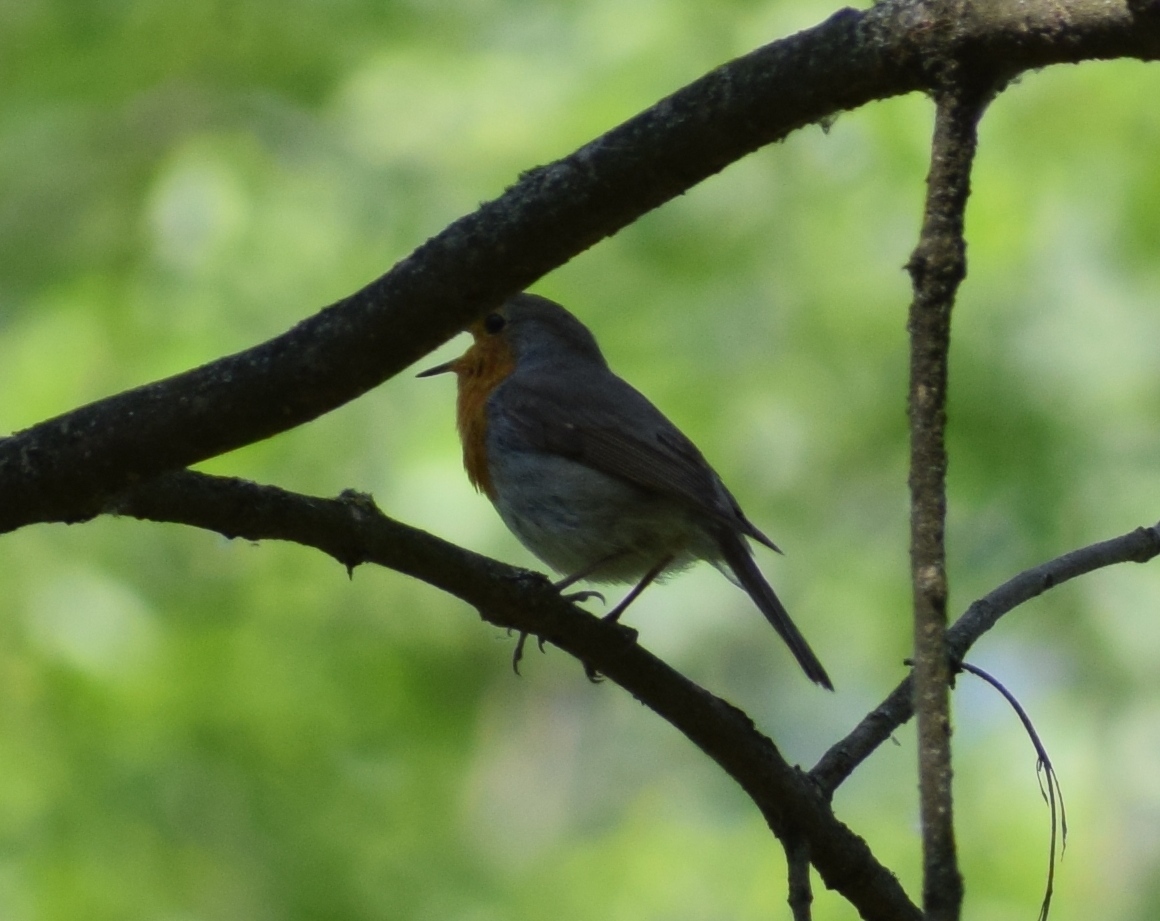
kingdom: Animalia
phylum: Chordata
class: Aves
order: Passeriformes
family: Muscicapidae
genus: Erithacus
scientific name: Erithacus rubecula
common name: European robin
